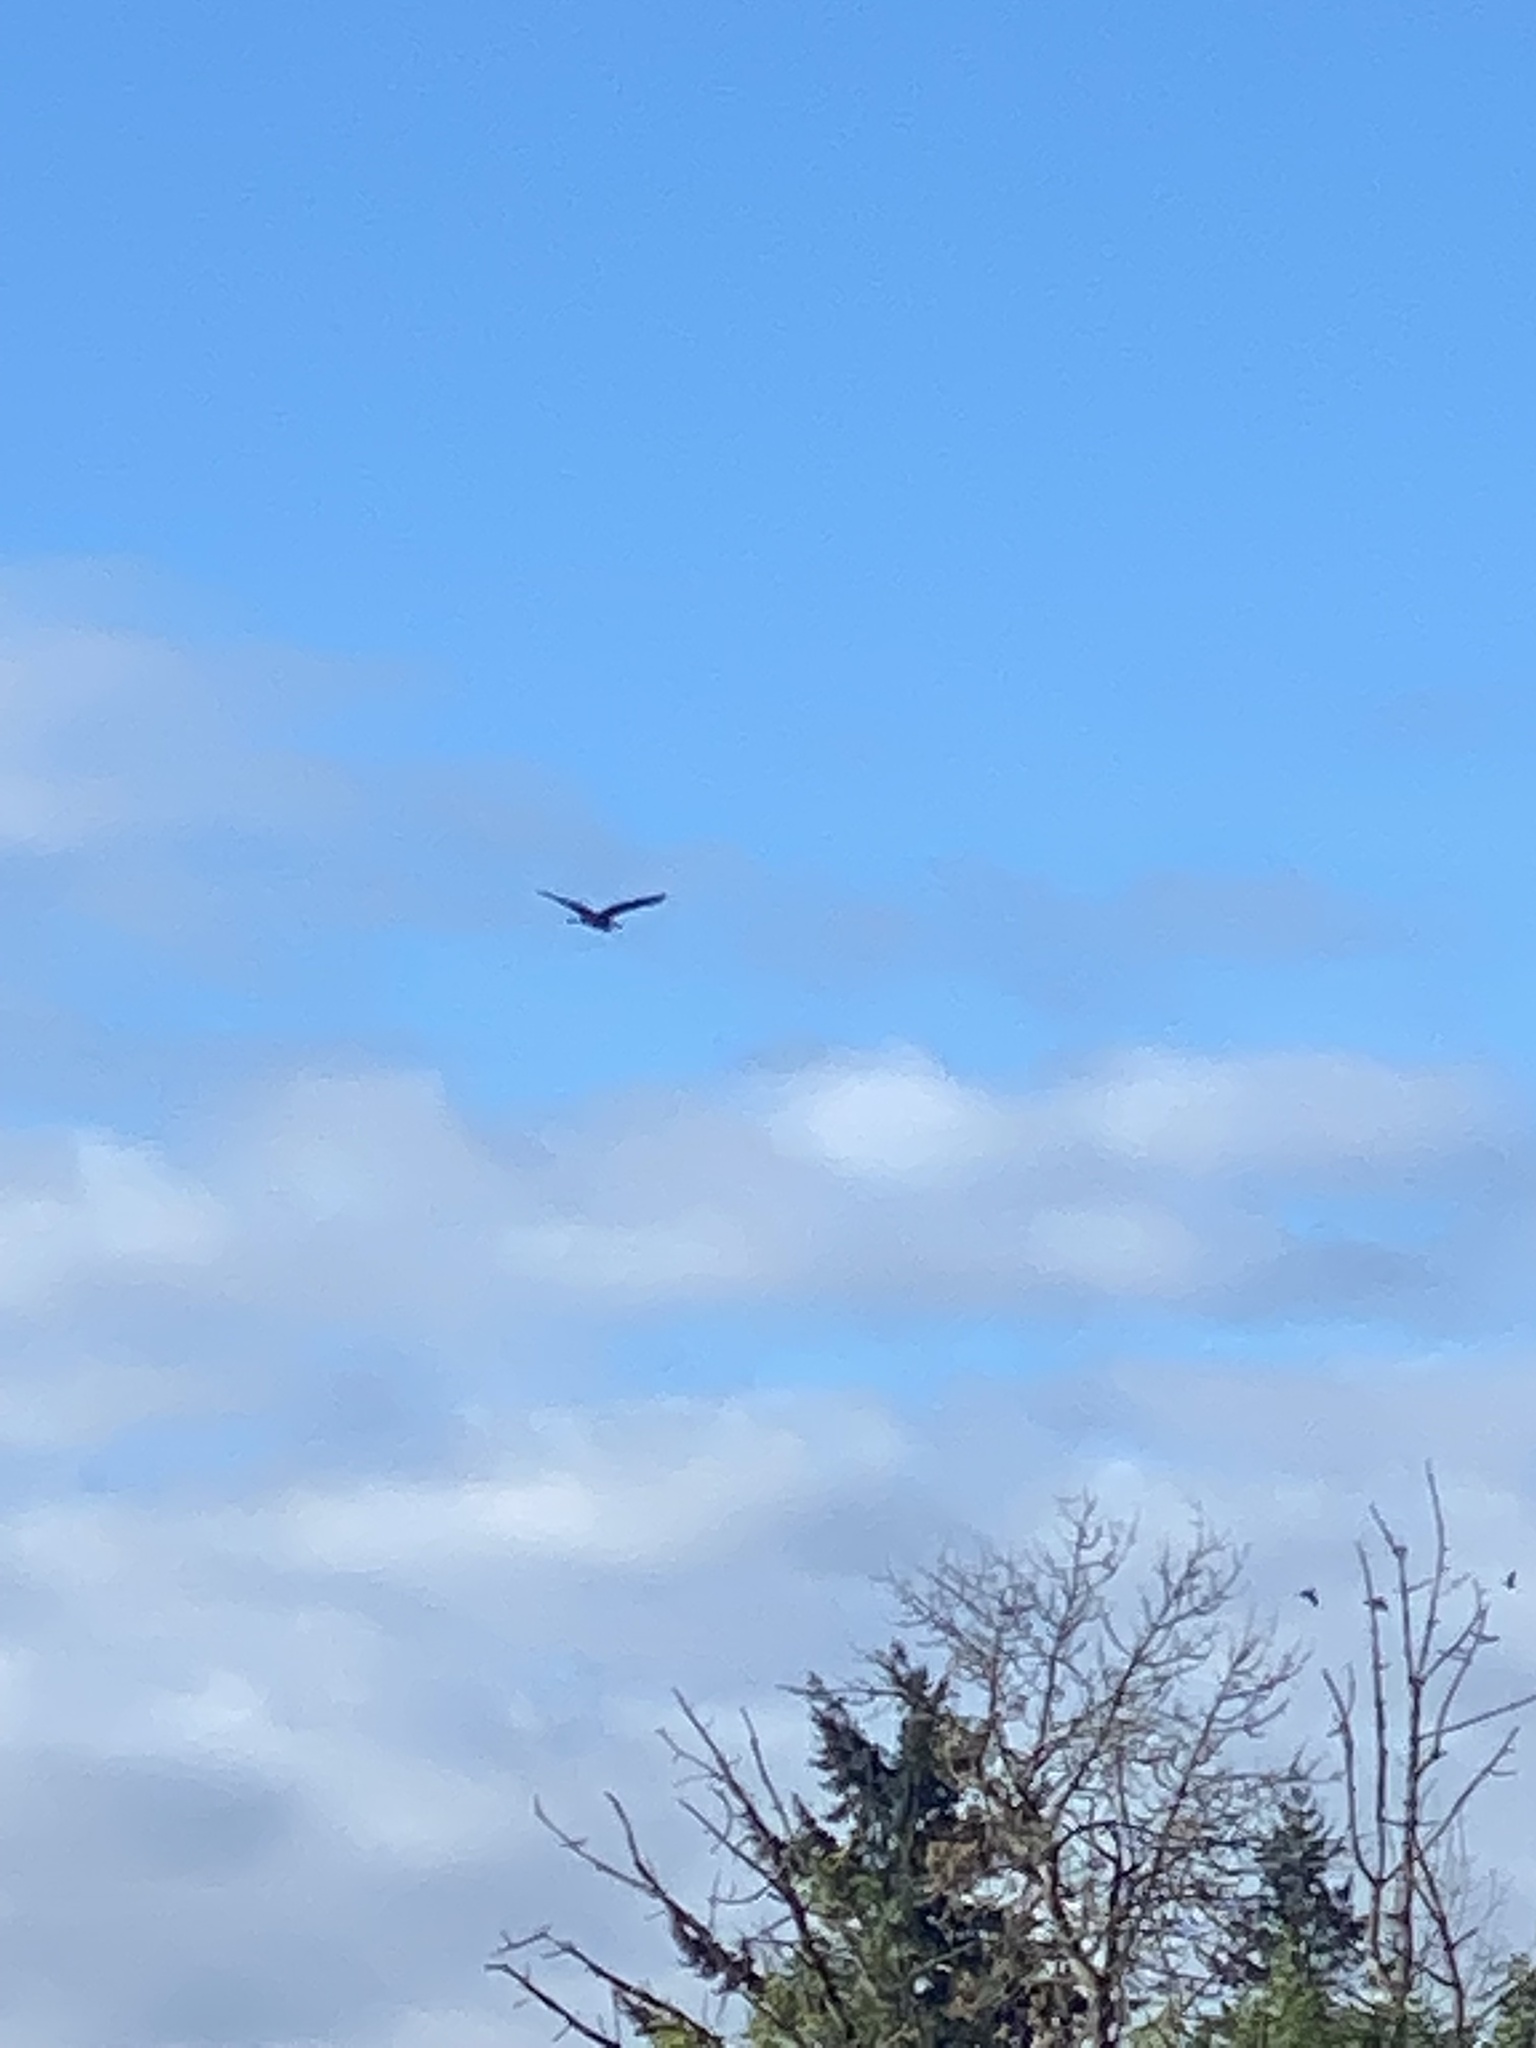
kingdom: Animalia
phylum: Chordata
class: Aves
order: Pelecaniformes
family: Ardeidae
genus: Ardea
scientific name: Ardea herodias
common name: Great blue heron
